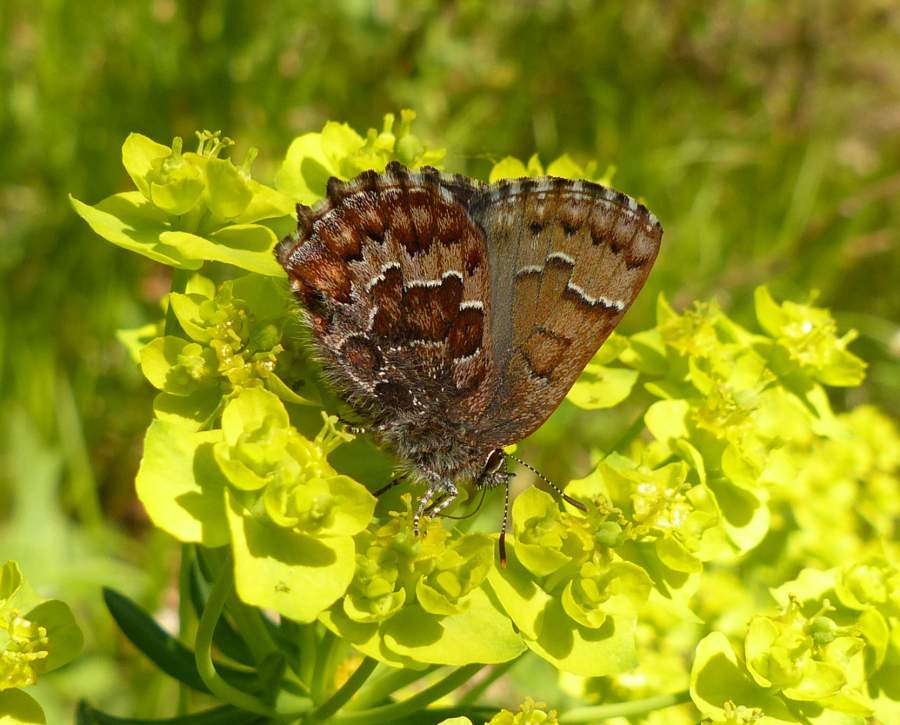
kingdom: Animalia
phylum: Arthropoda
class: Insecta
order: Lepidoptera
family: Lycaenidae
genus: Incisalia
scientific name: Incisalia niphon
